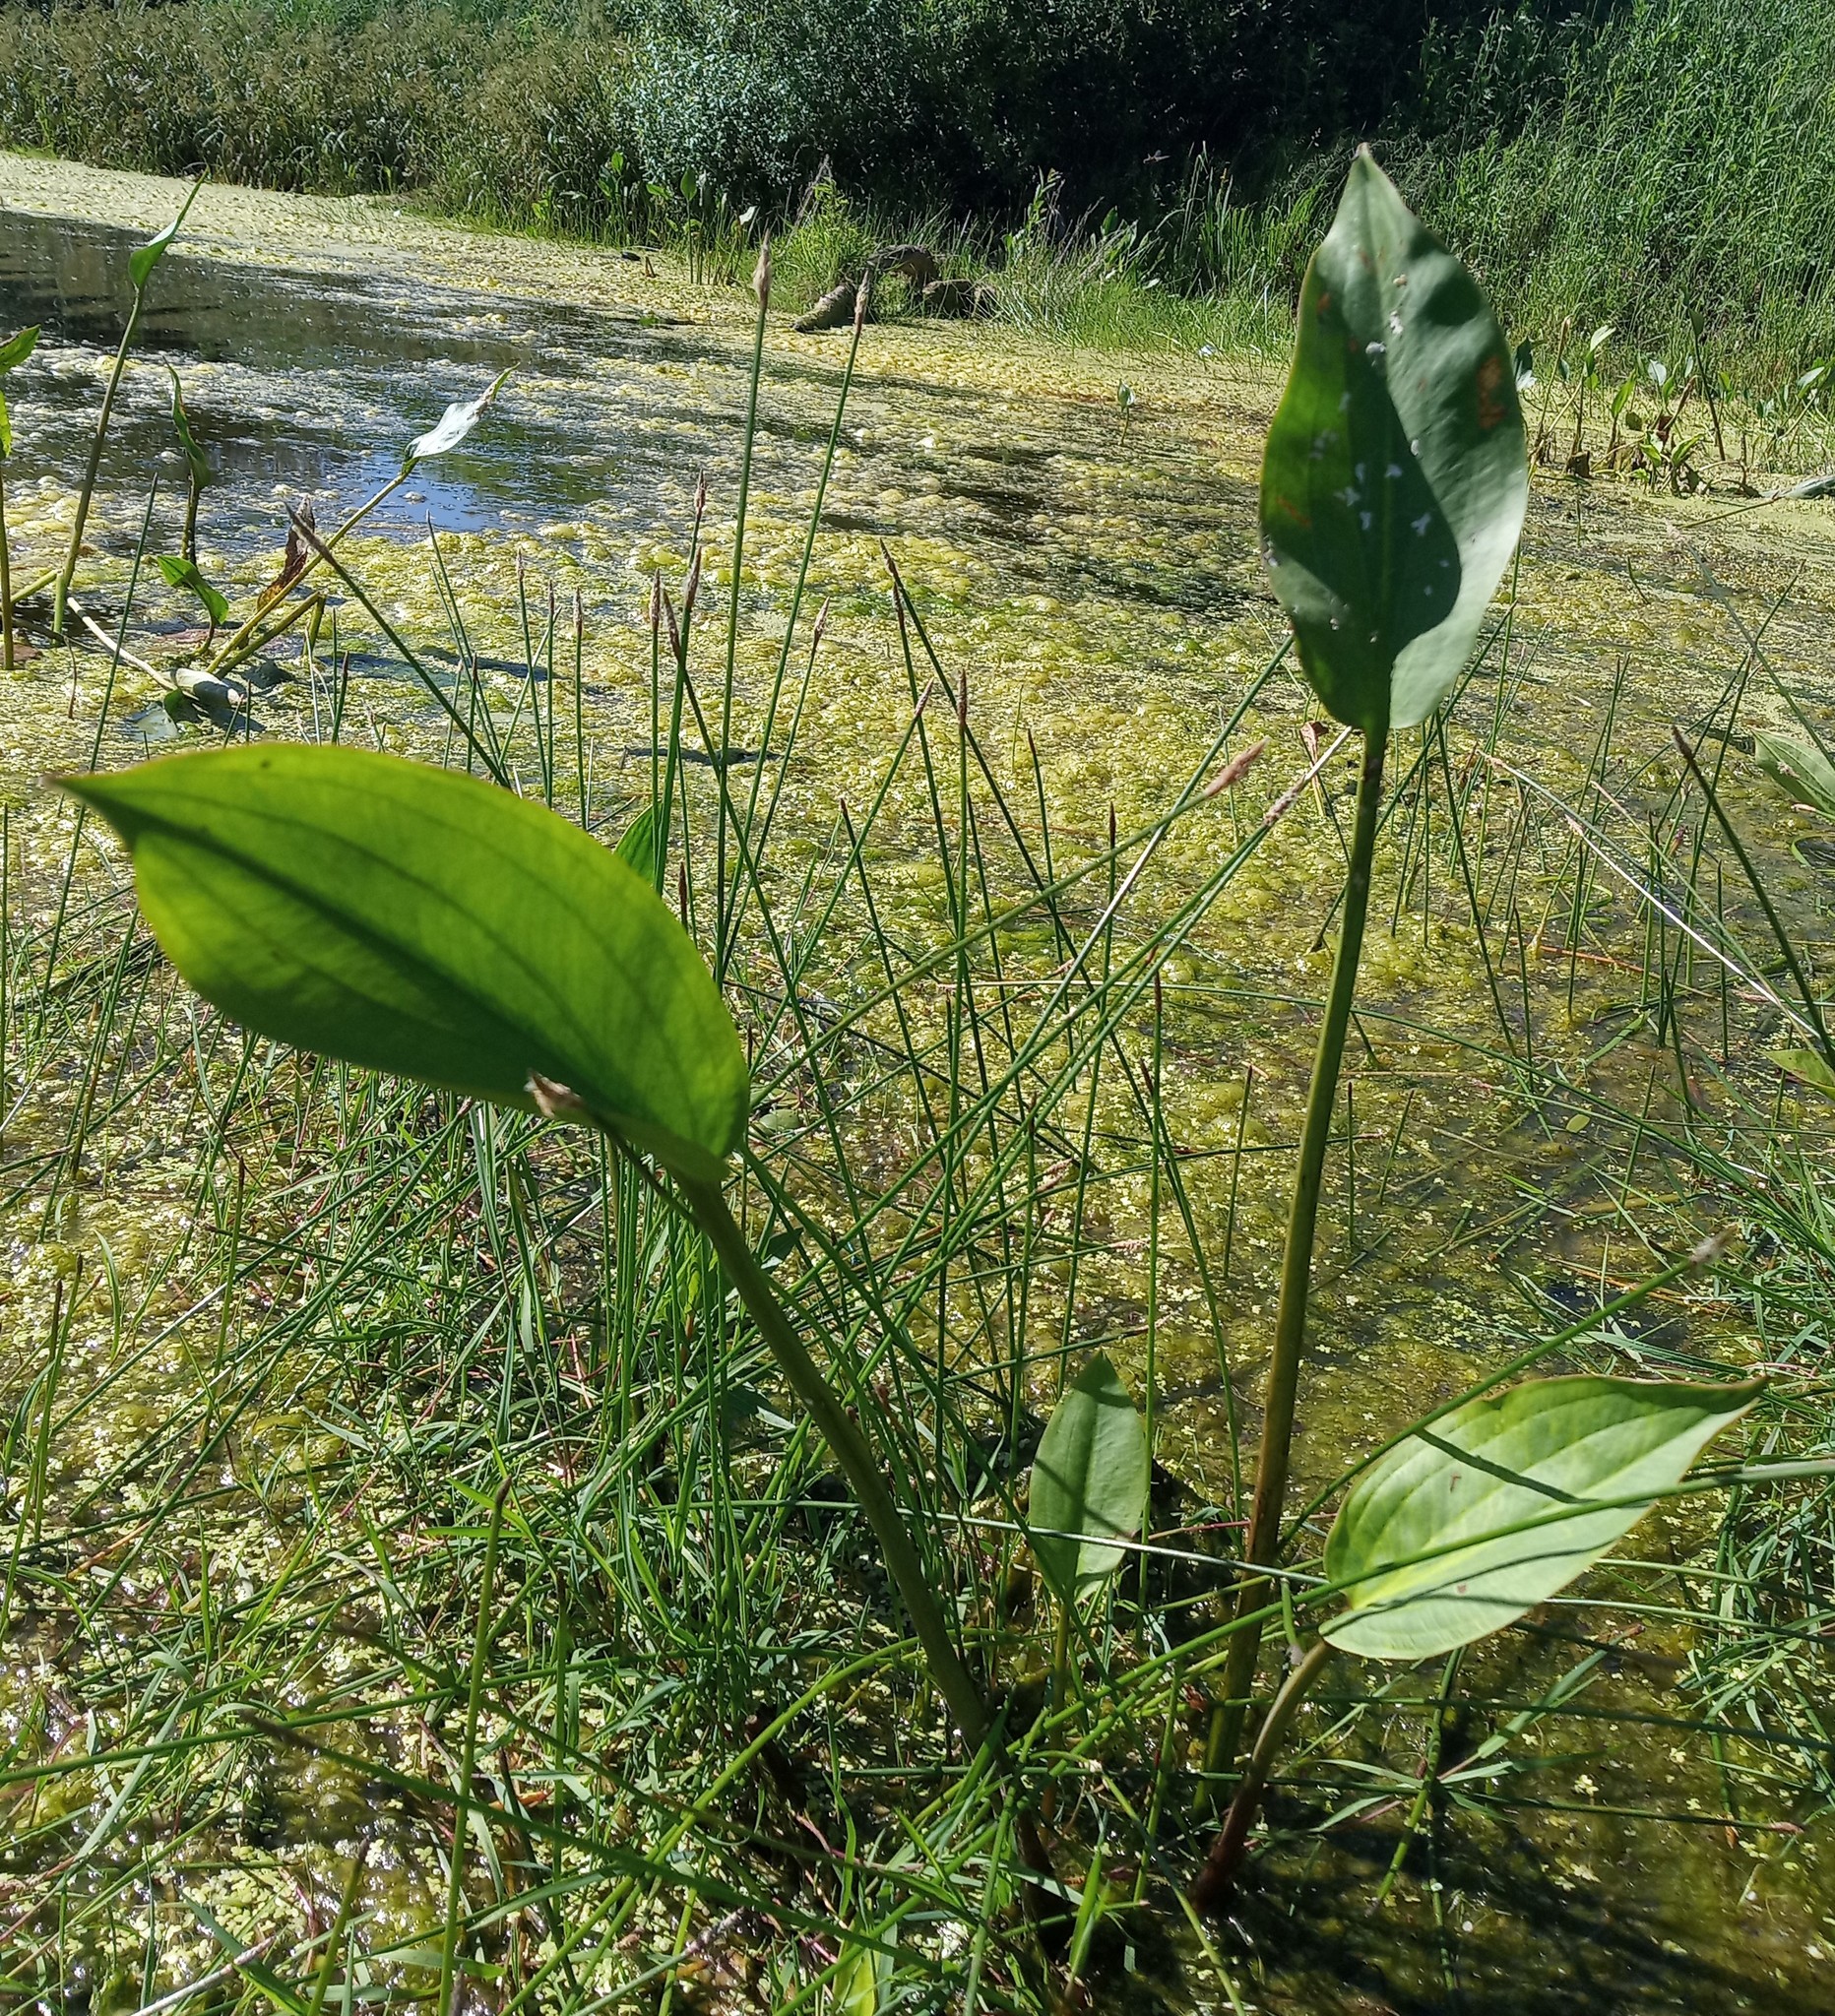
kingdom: Plantae
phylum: Tracheophyta
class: Liliopsida
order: Alismatales
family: Alismataceae
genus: Alisma
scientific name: Alisma plantago-aquatica
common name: Water-plantain
